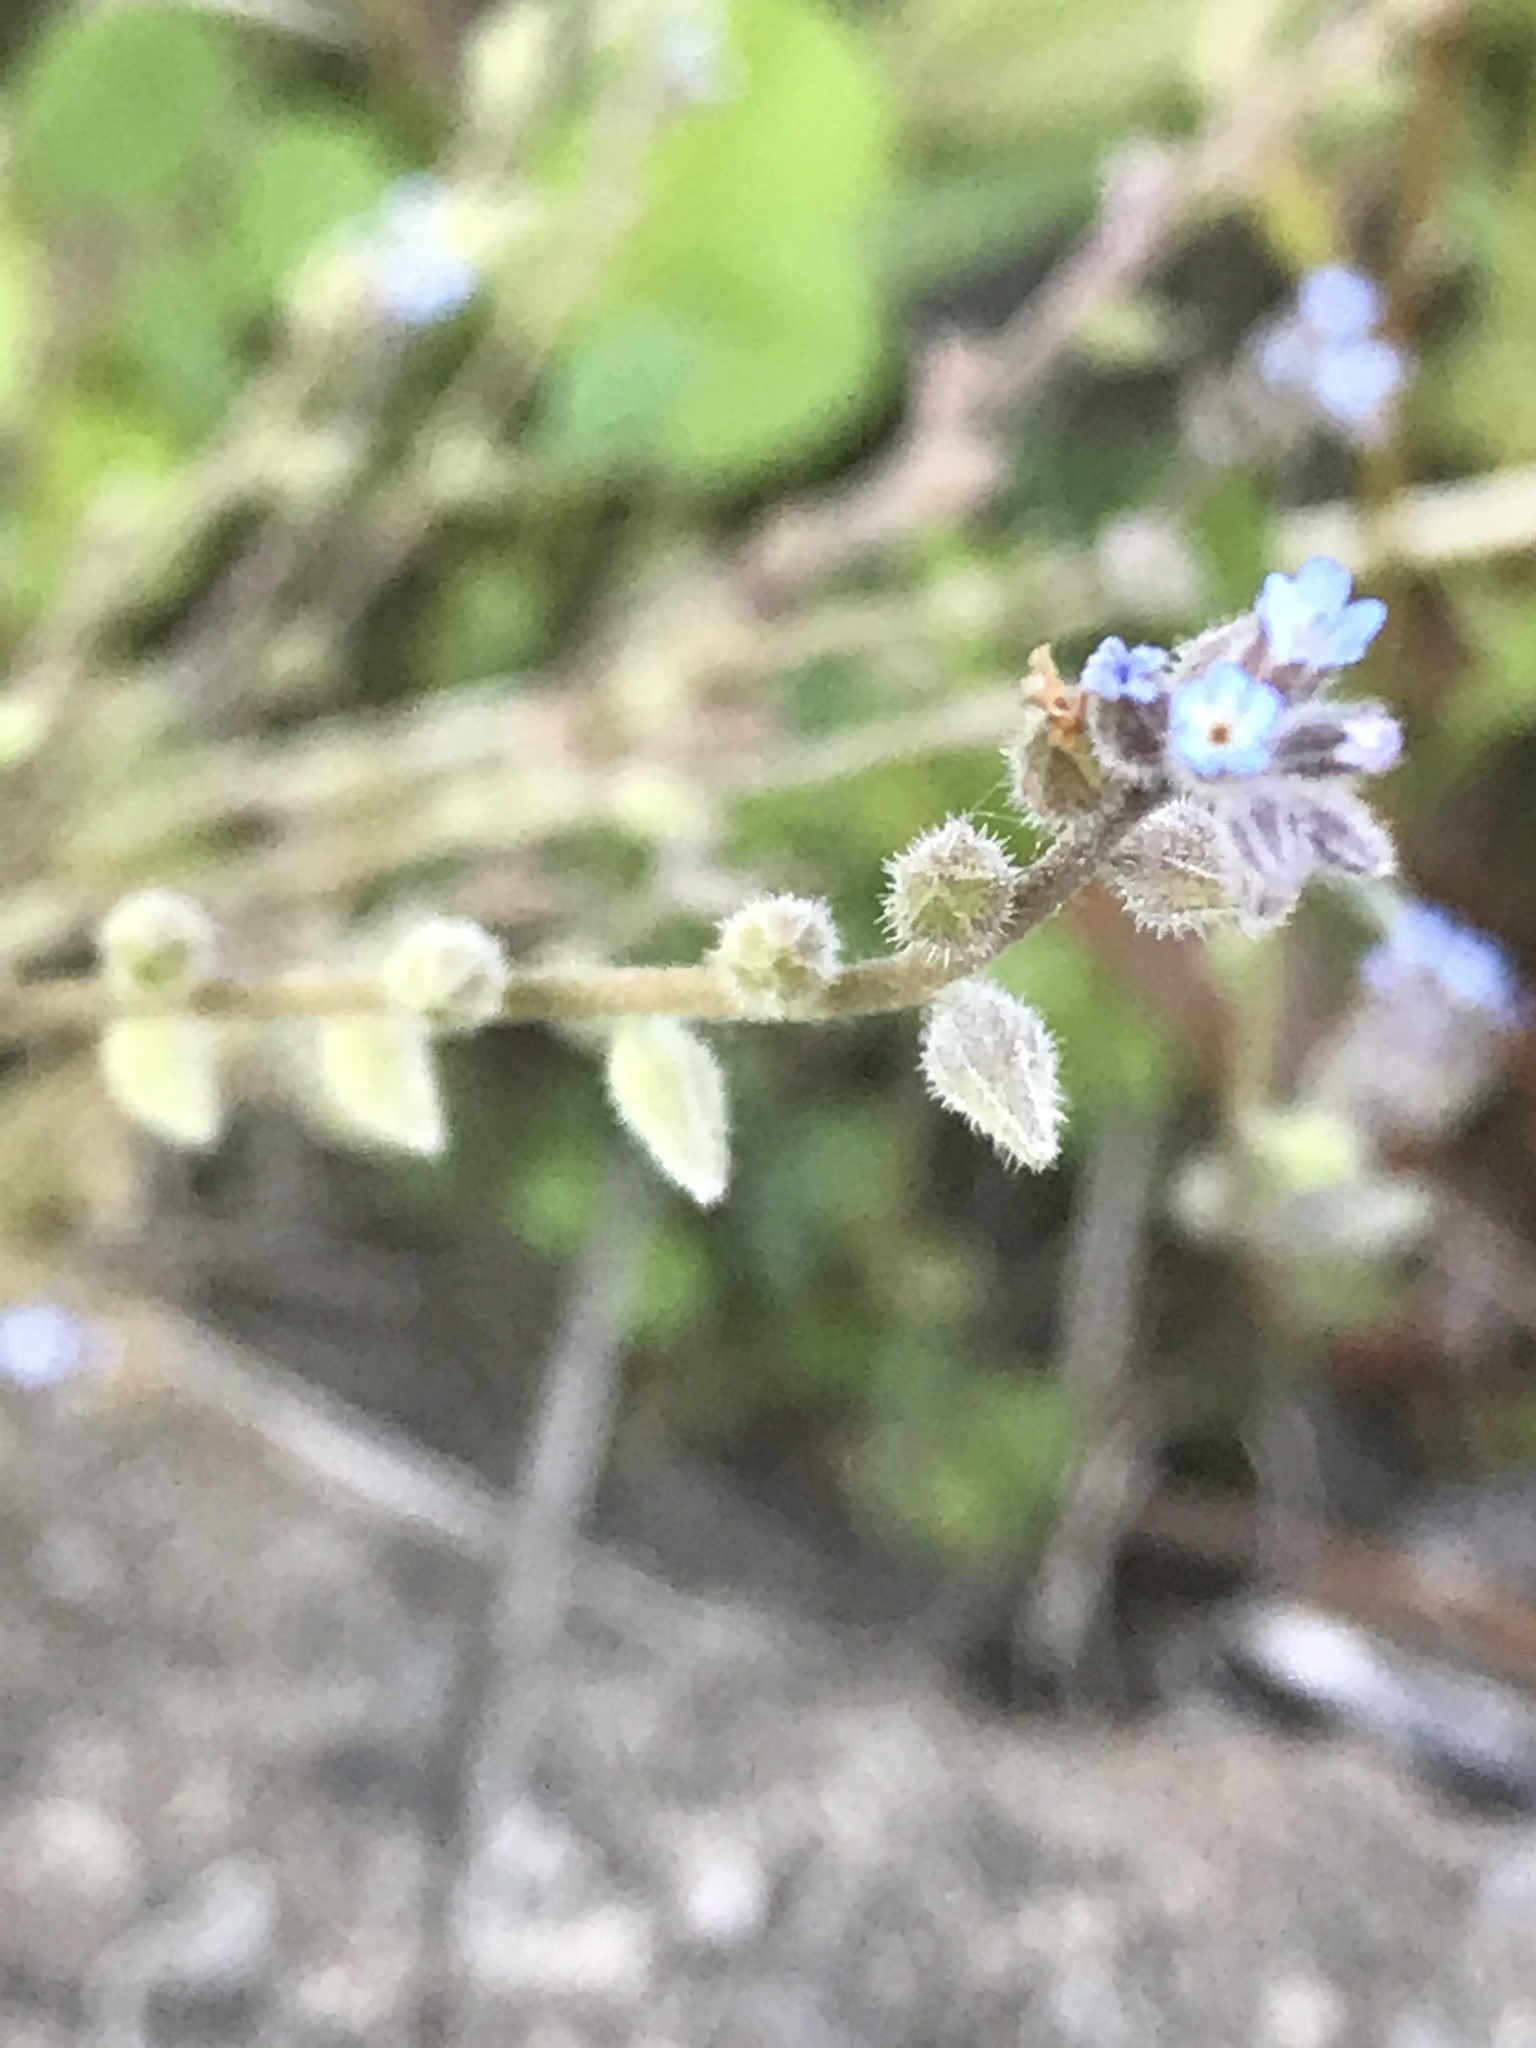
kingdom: Plantae
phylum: Tracheophyta
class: Magnoliopsida
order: Boraginales
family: Boraginaceae
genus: Myosotis
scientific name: Myosotis stricta
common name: Strict forget-me-not
